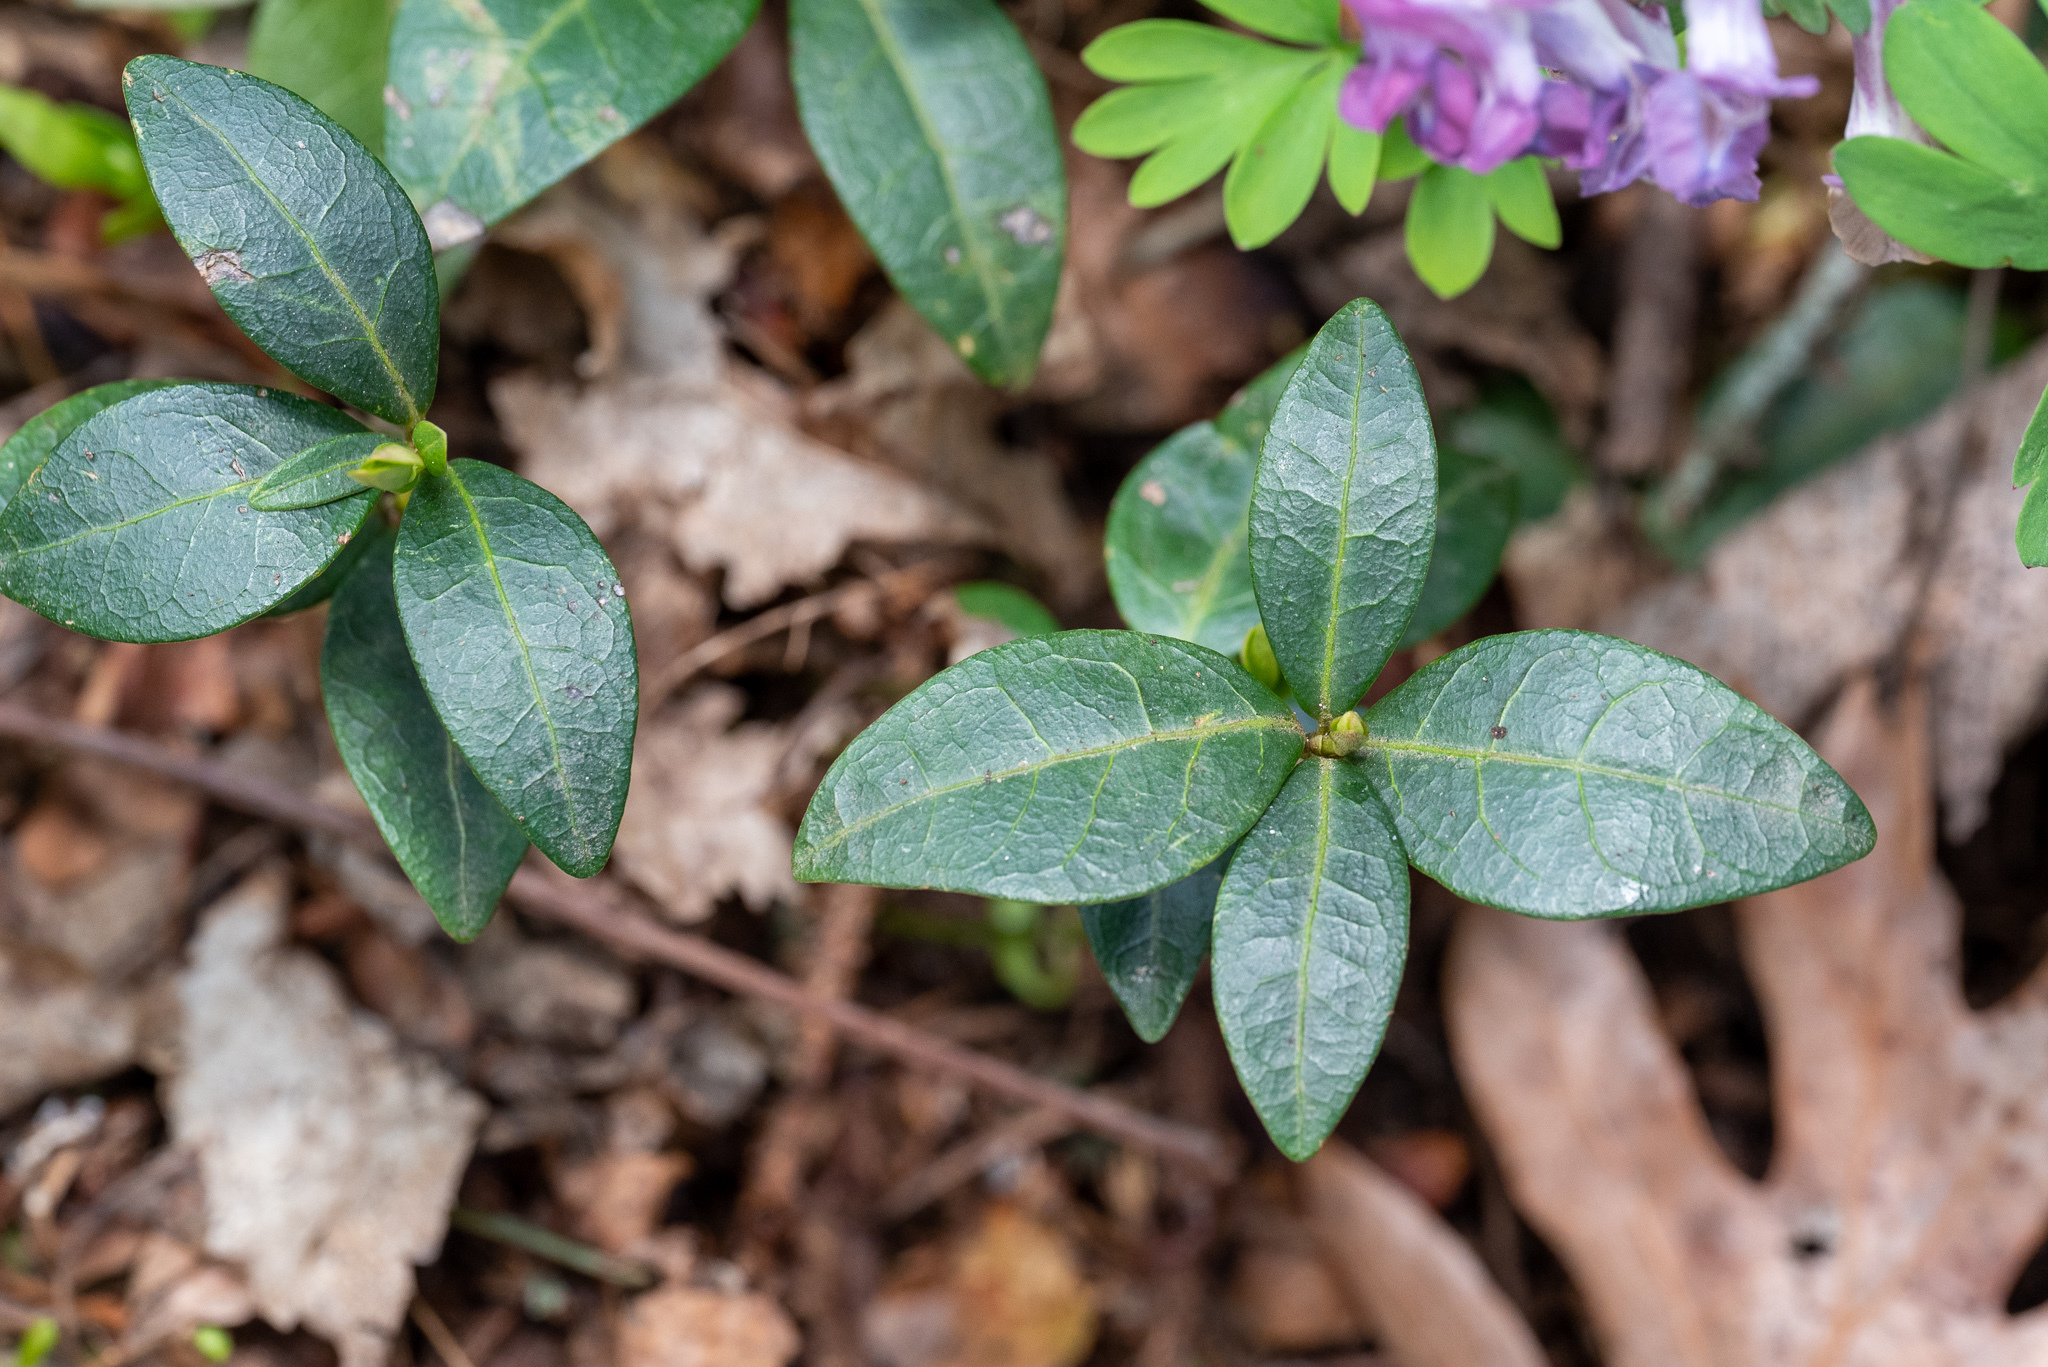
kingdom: Plantae
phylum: Tracheophyta
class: Magnoliopsida
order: Gentianales
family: Apocynaceae
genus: Vinca
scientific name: Vinca minor
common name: Lesser periwinkle
